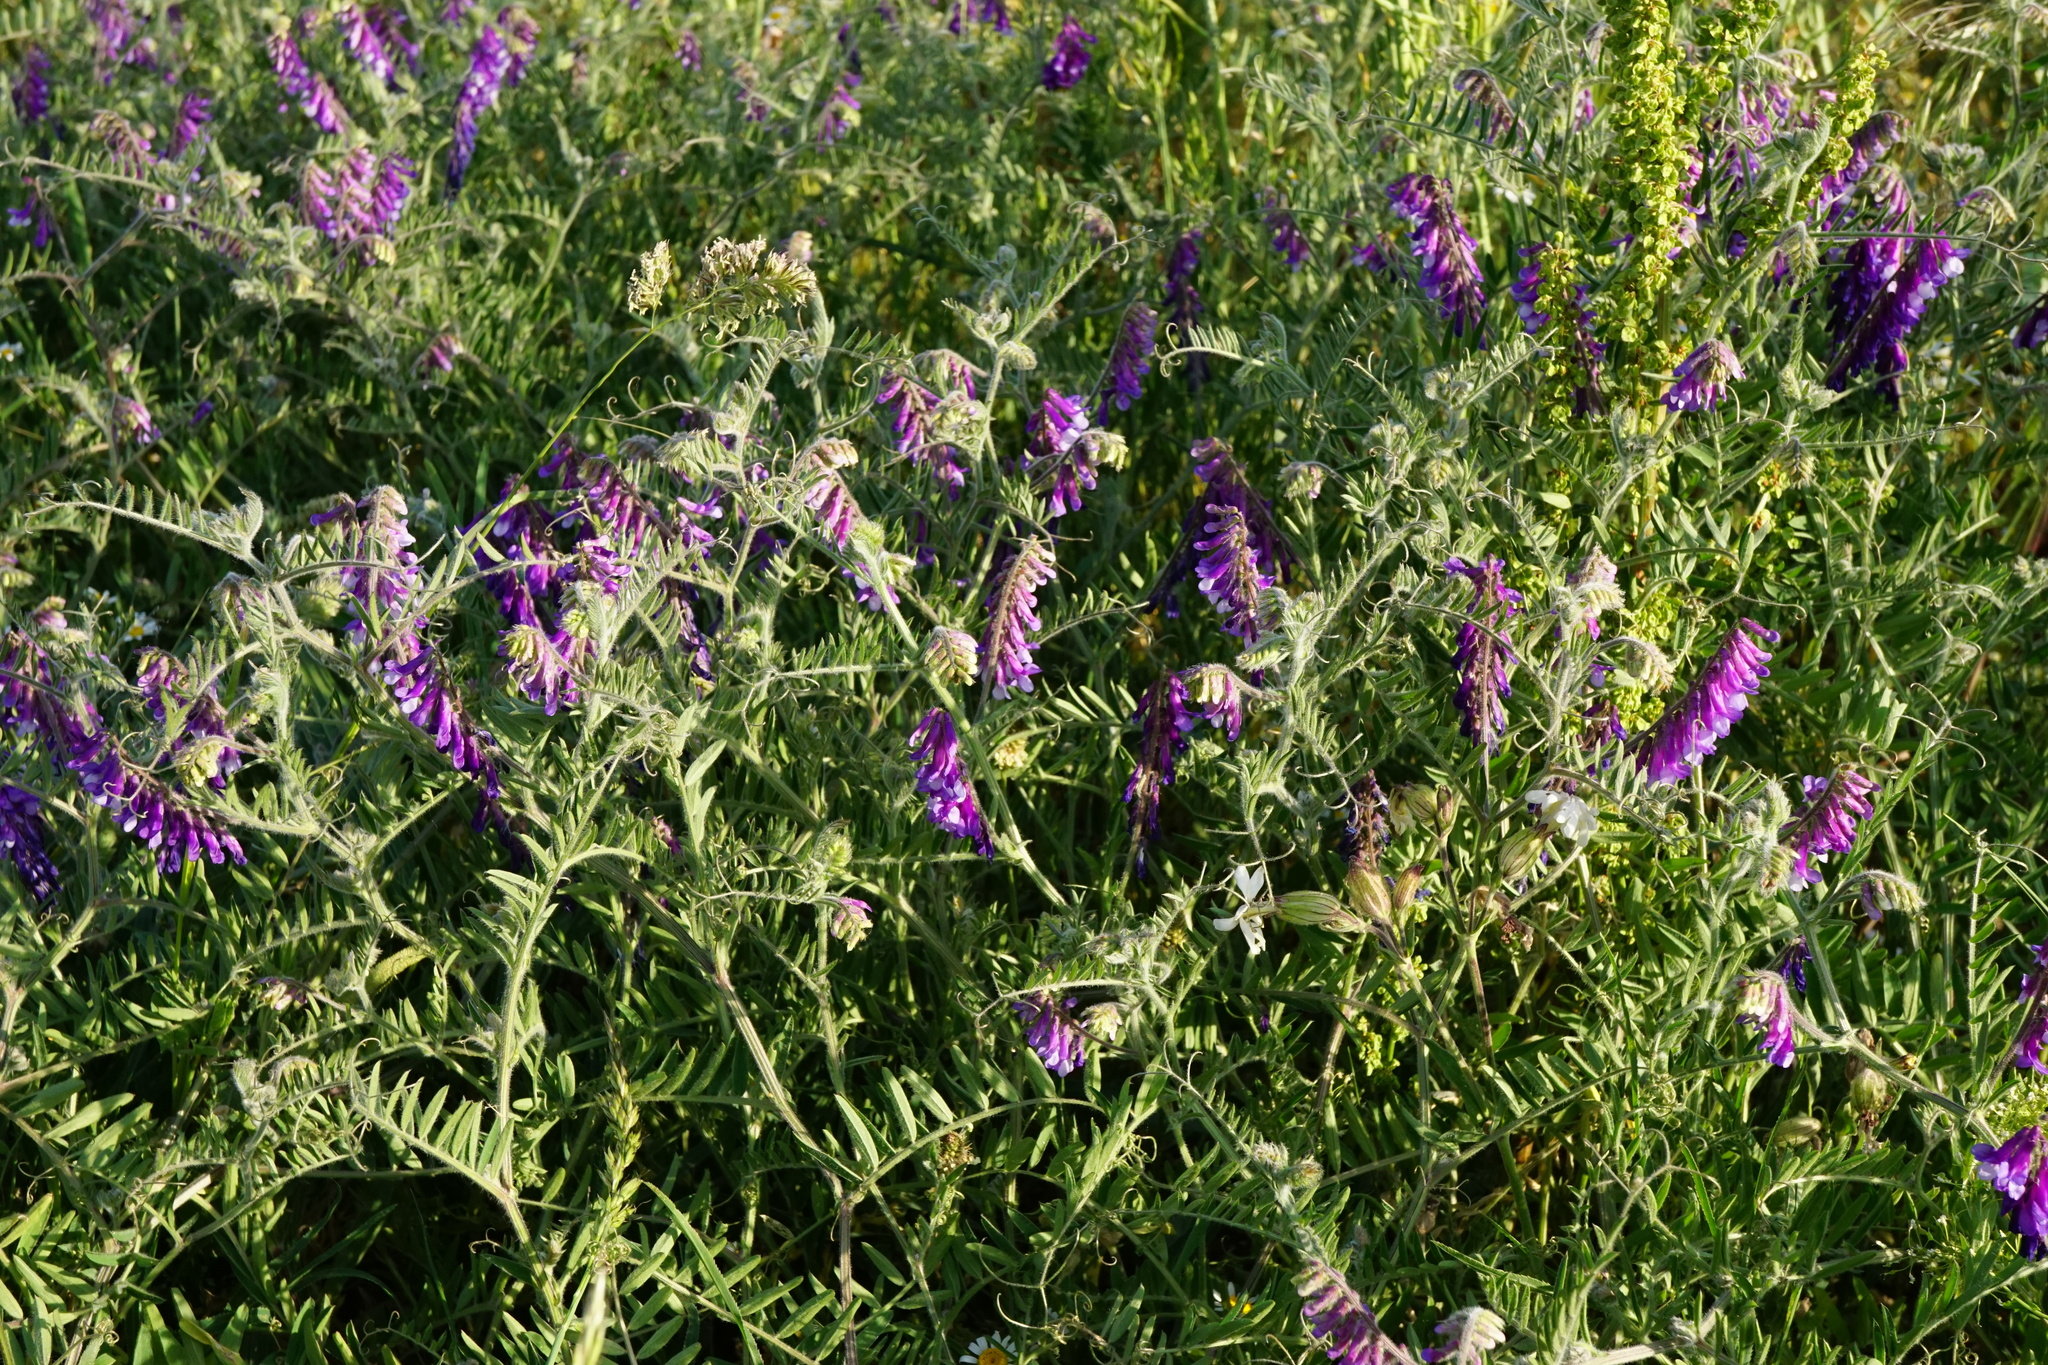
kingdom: Plantae
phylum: Tracheophyta
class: Magnoliopsida
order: Fabales
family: Fabaceae
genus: Vicia
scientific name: Vicia villosa
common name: Fodder vetch
